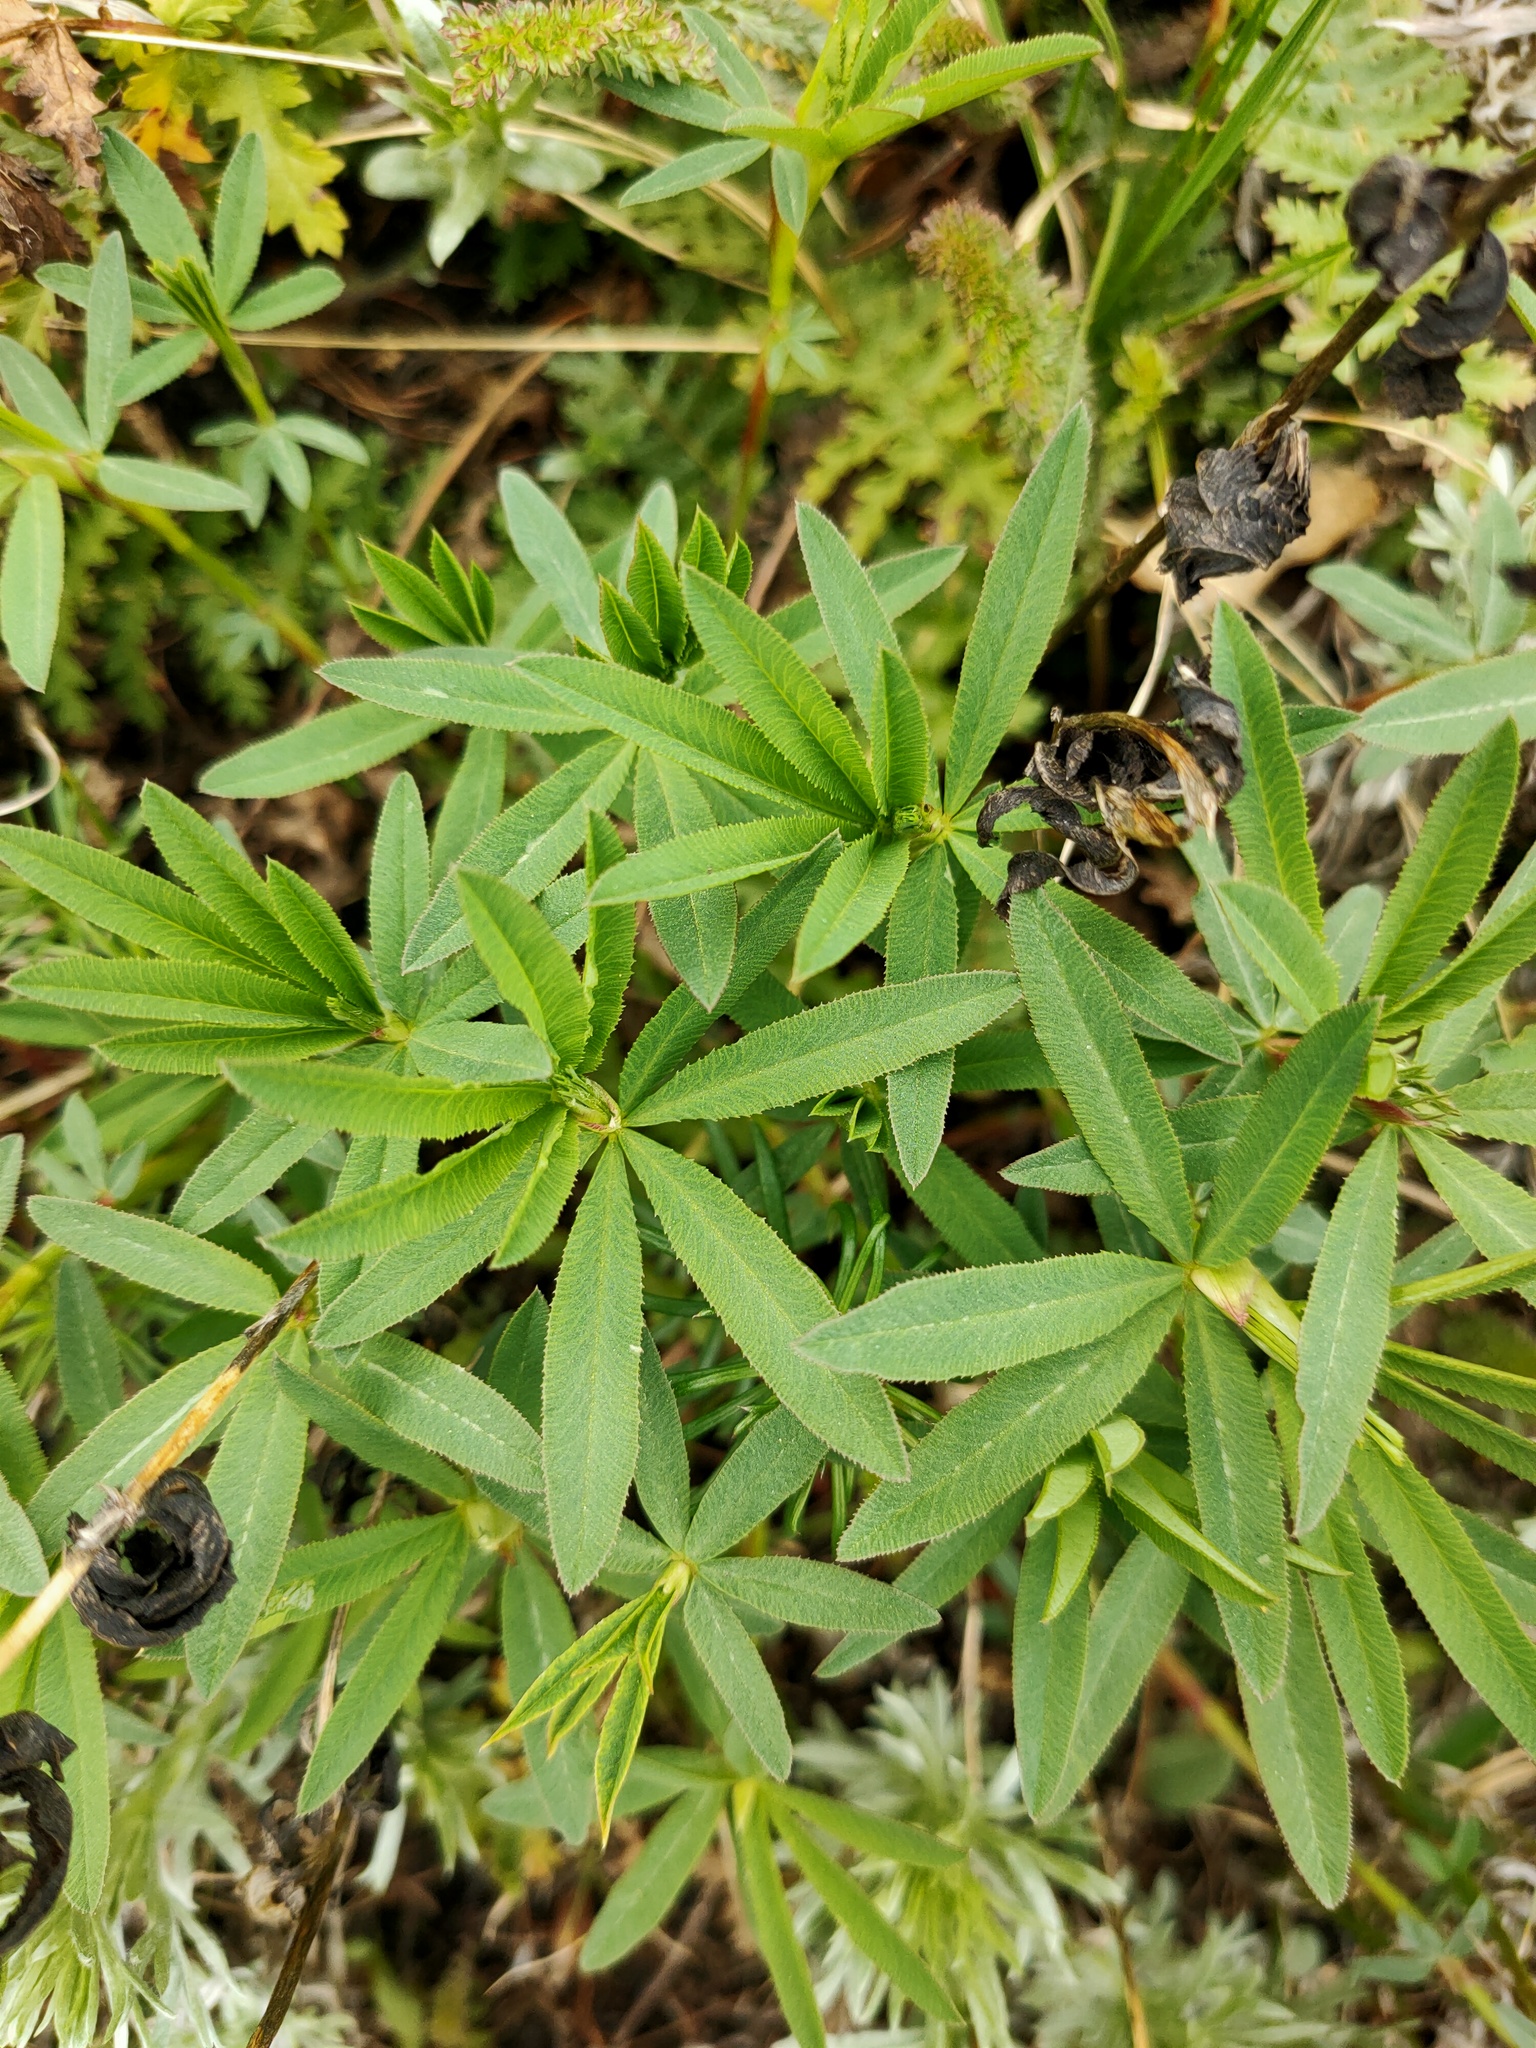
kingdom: Plantae
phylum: Tracheophyta
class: Magnoliopsida
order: Fabales
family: Fabaceae
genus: Trifolium
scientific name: Trifolium lupinaster
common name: Lupine clover
